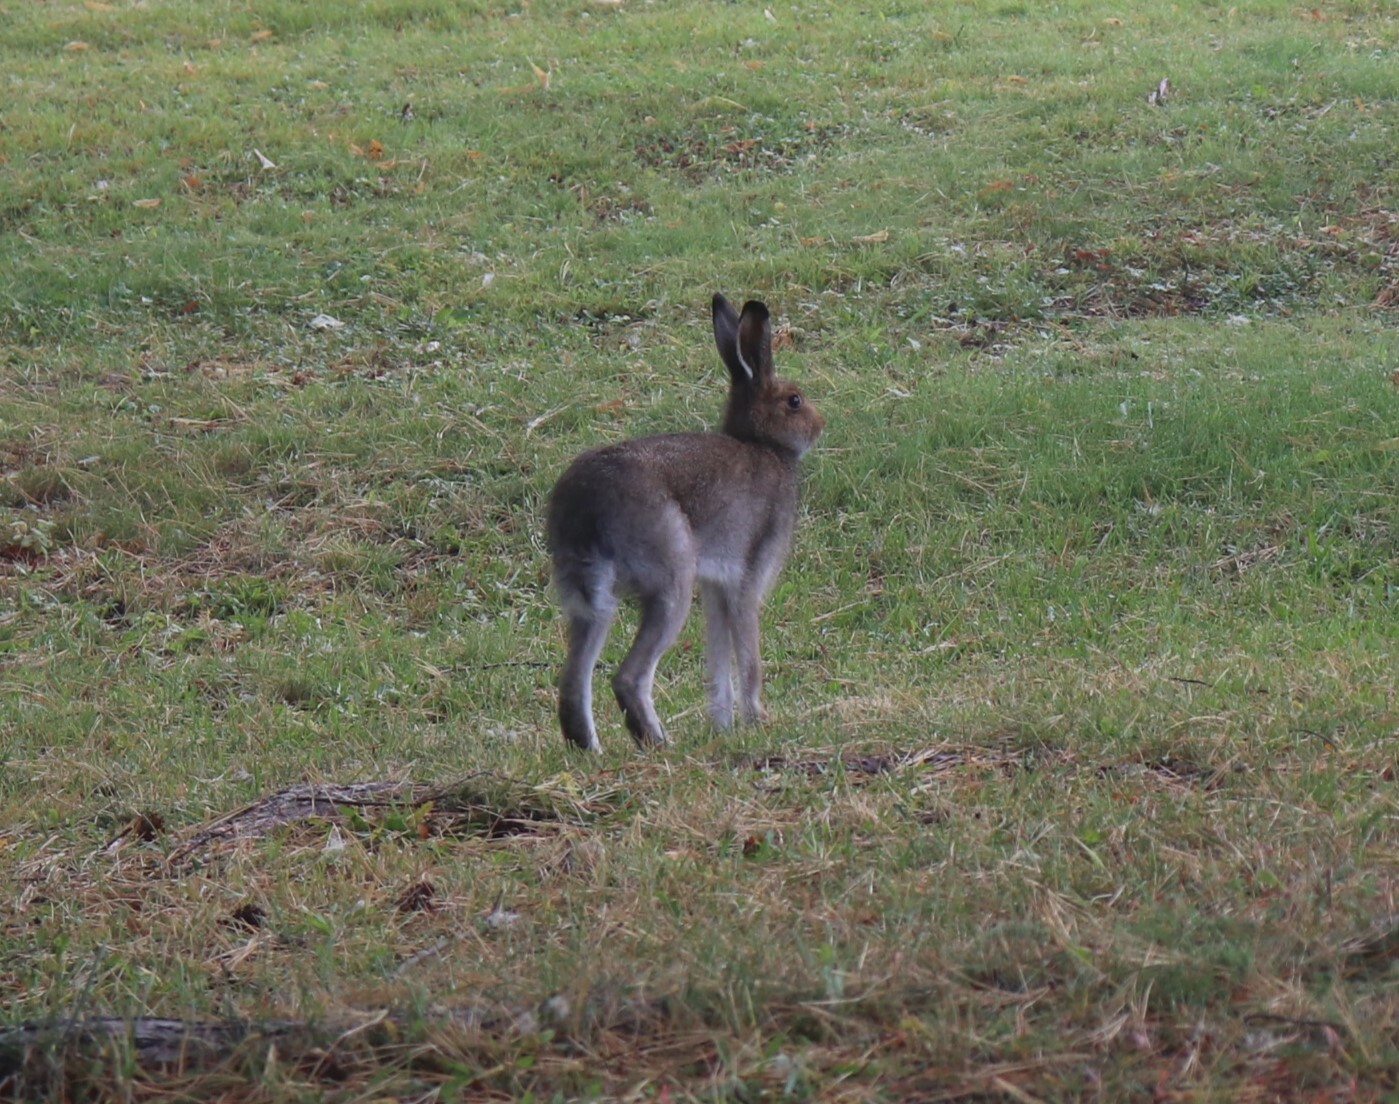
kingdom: Animalia
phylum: Chordata
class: Mammalia
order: Lagomorpha
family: Leporidae
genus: Lepus
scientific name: Lepus timidus
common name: Mountain hare
